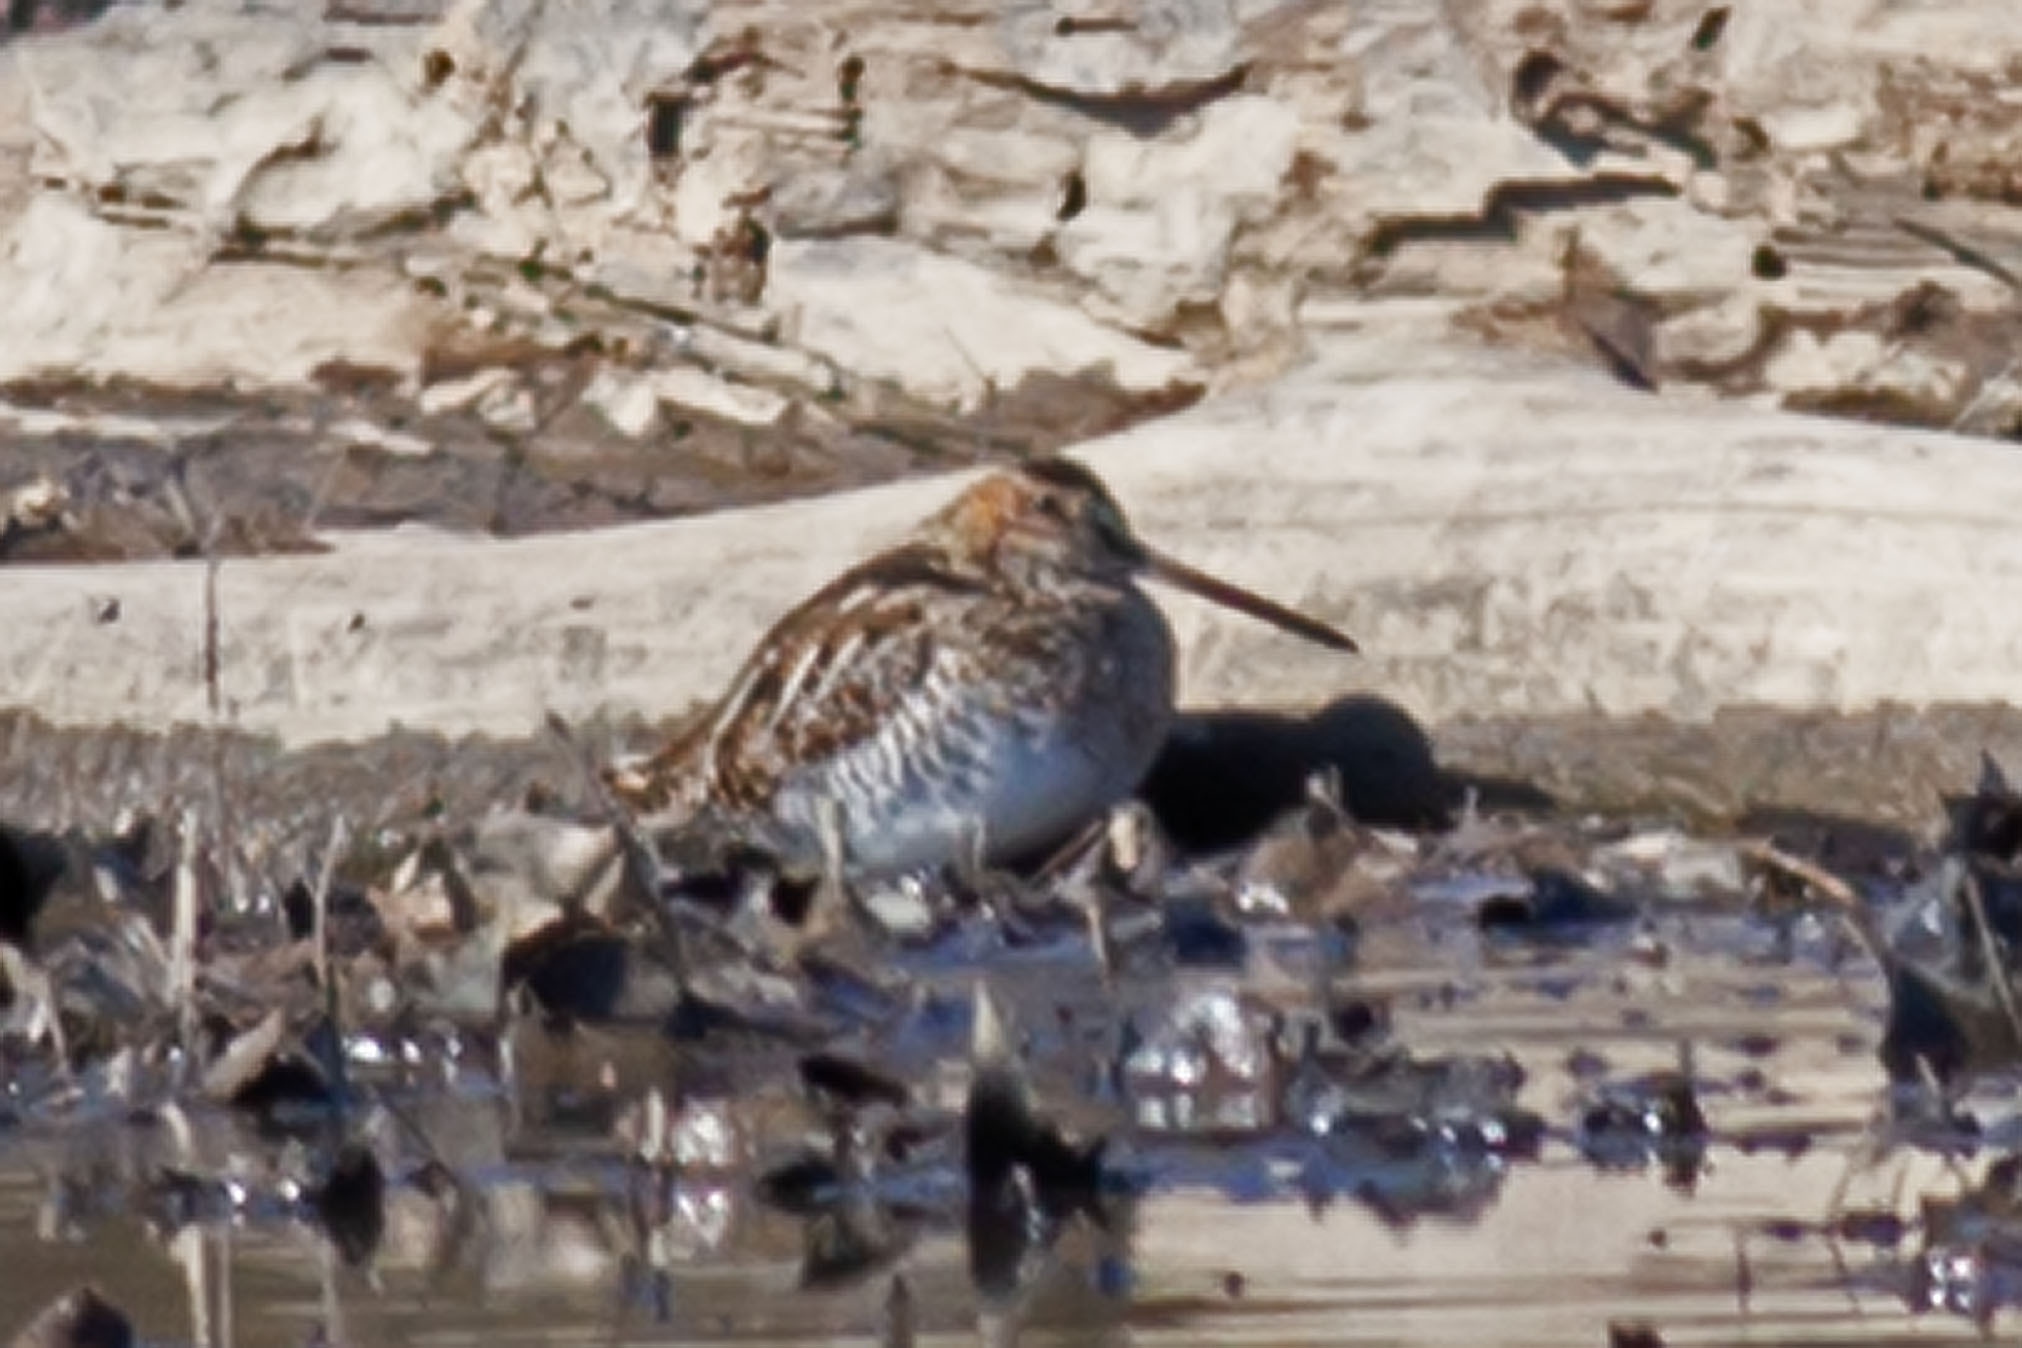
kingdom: Animalia
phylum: Chordata
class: Aves
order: Charadriiformes
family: Scolopacidae
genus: Gallinago
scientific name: Gallinago delicata
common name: Wilson's snipe
